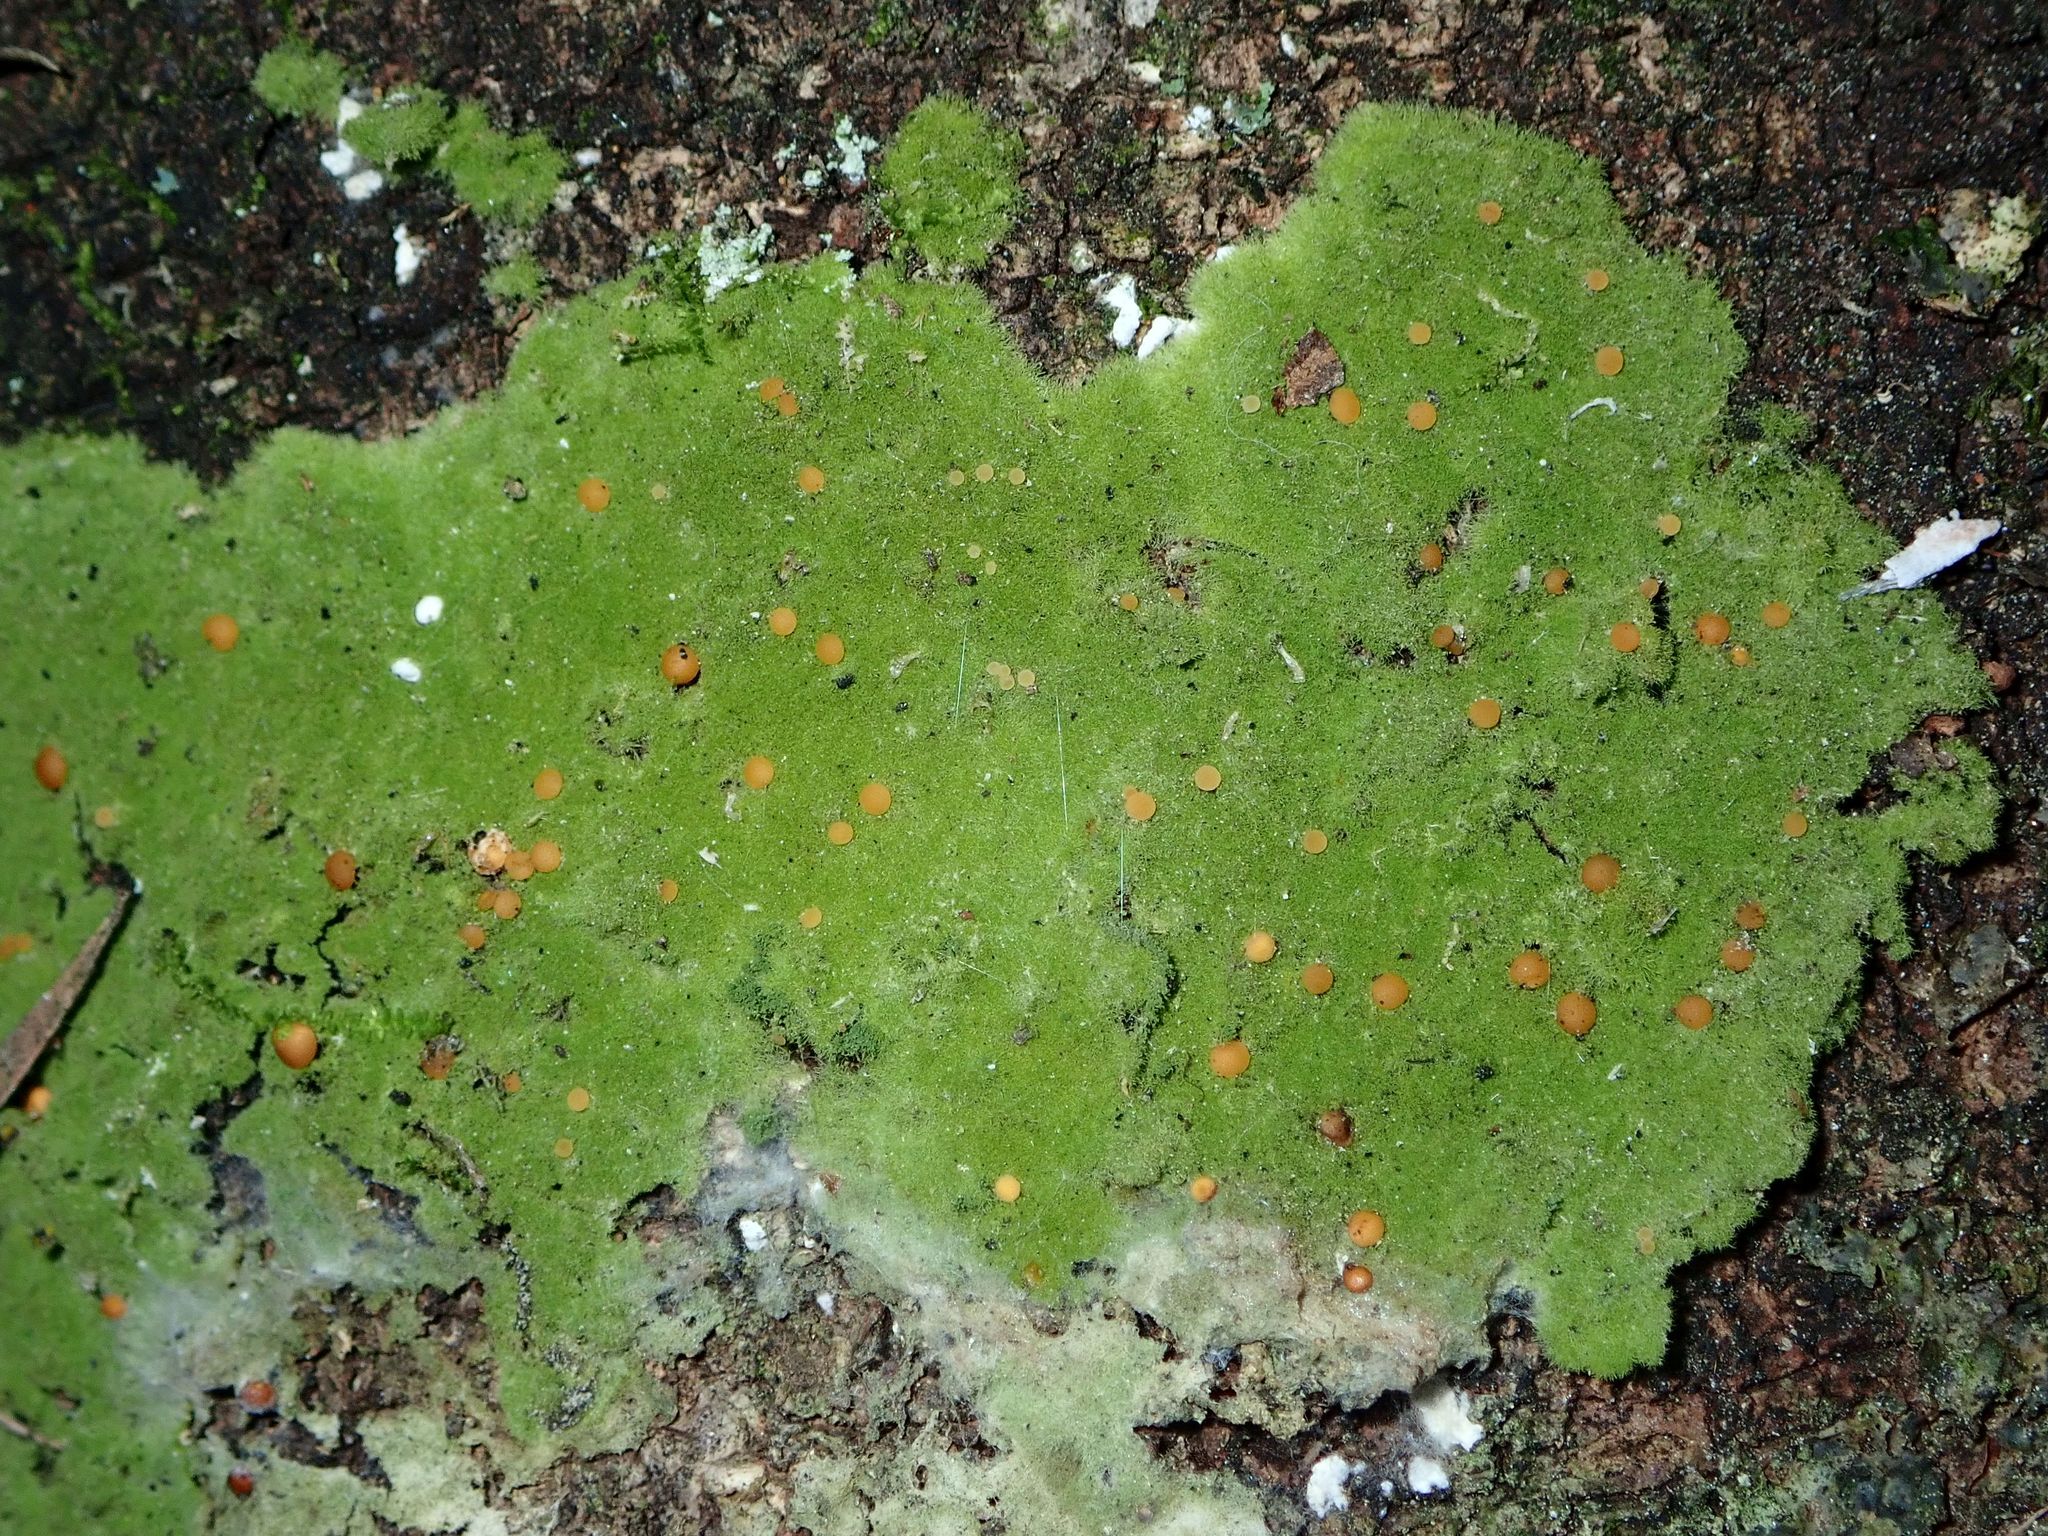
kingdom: Fungi
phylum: Ascomycota
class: Lecanoromycetes
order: Ostropales
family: Coenogoniaceae
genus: Coenogonium
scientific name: Coenogonium implexum
